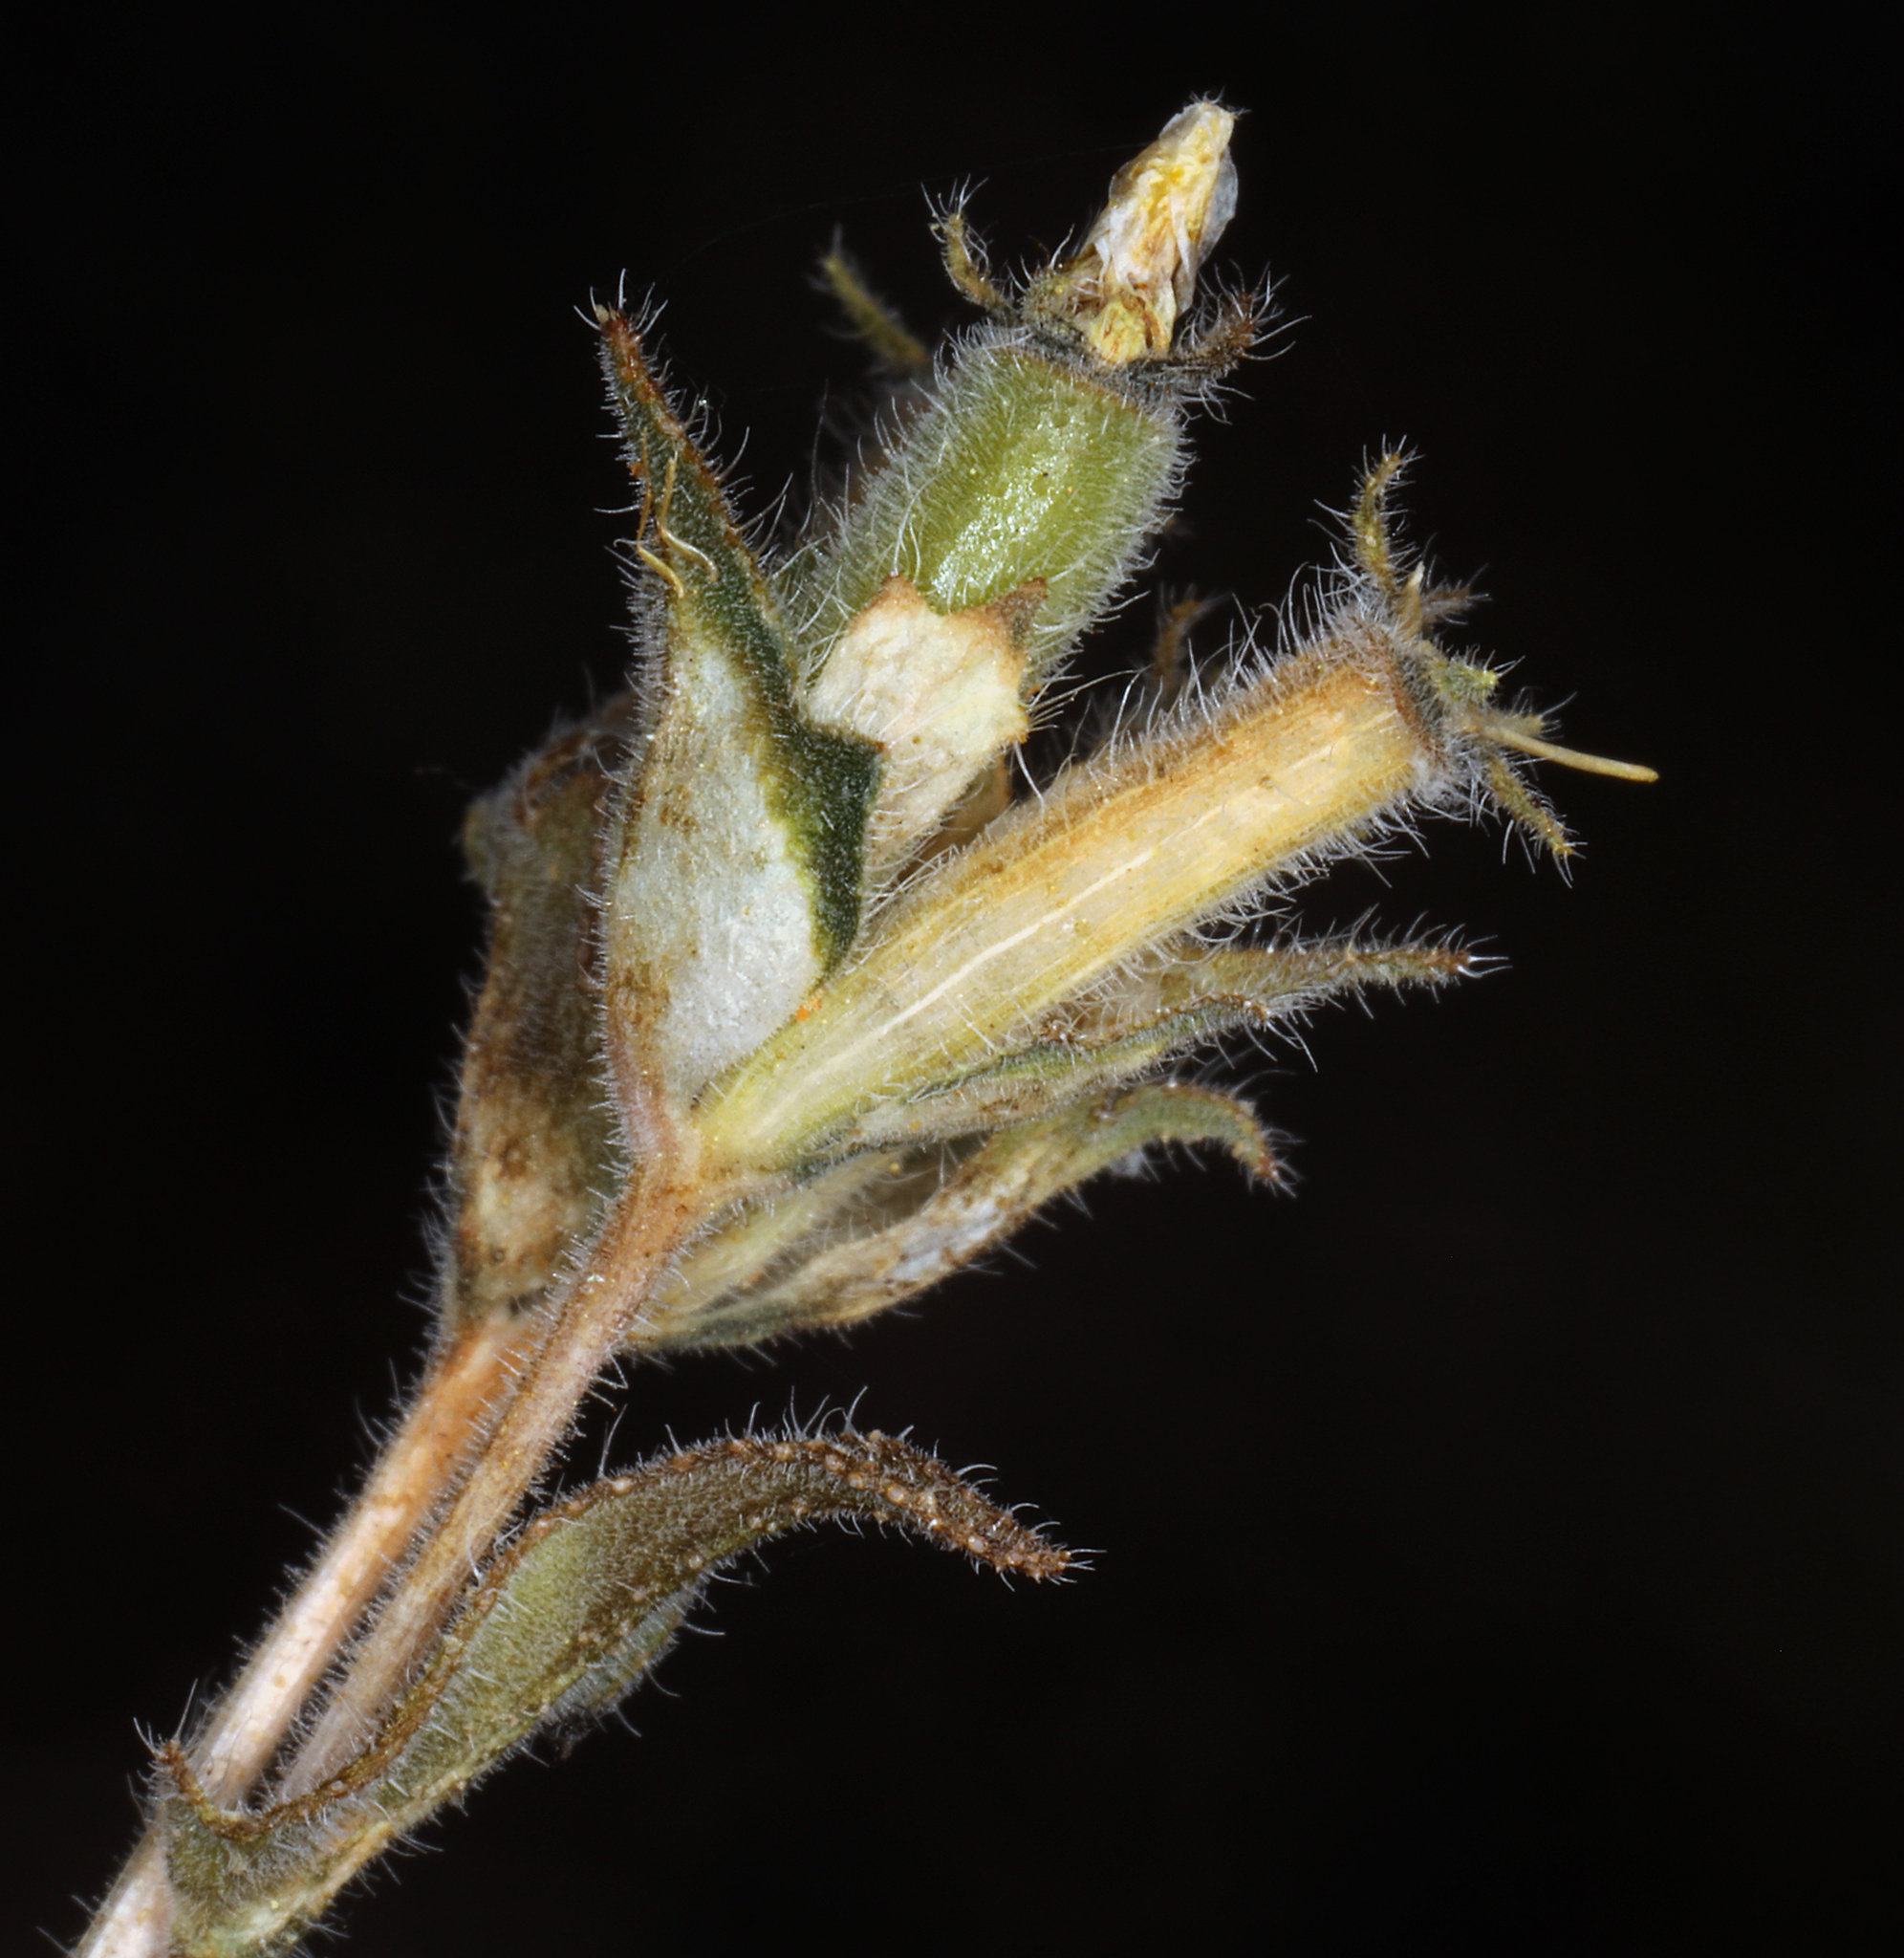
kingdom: Plantae
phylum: Tracheophyta
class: Magnoliopsida
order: Cornales
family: Loasaceae
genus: Mentzelia
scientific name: Mentzelia congesta
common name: Ventana blazingstar
